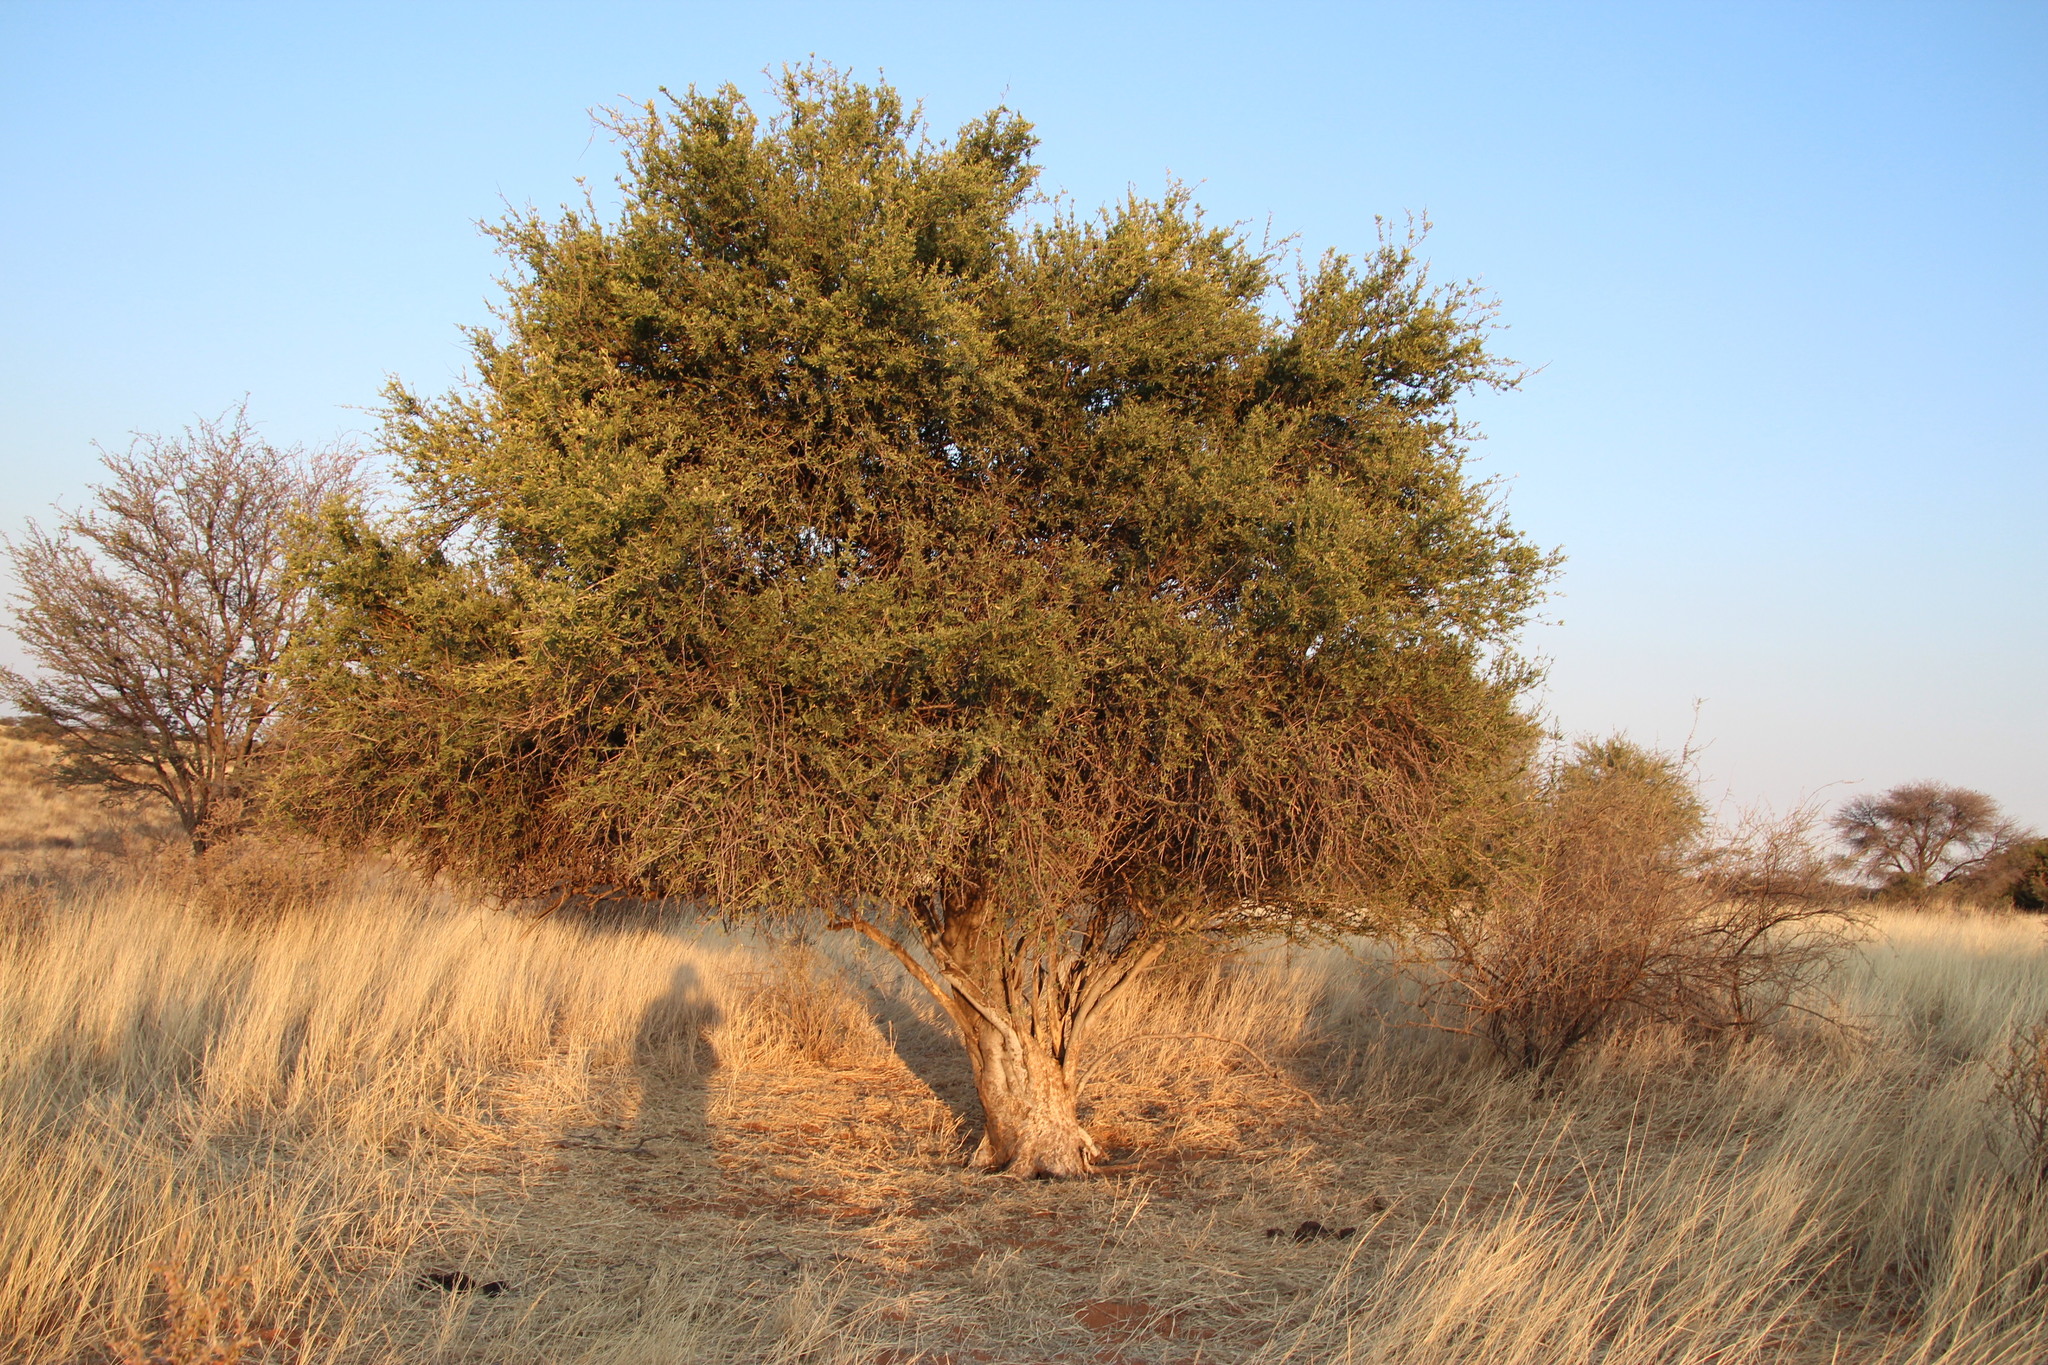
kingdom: Plantae
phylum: Tracheophyta
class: Magnoliopsida
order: Brassicales
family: Capparaceae
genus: Boscia
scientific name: Boscia albitrunca
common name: Caper bush
